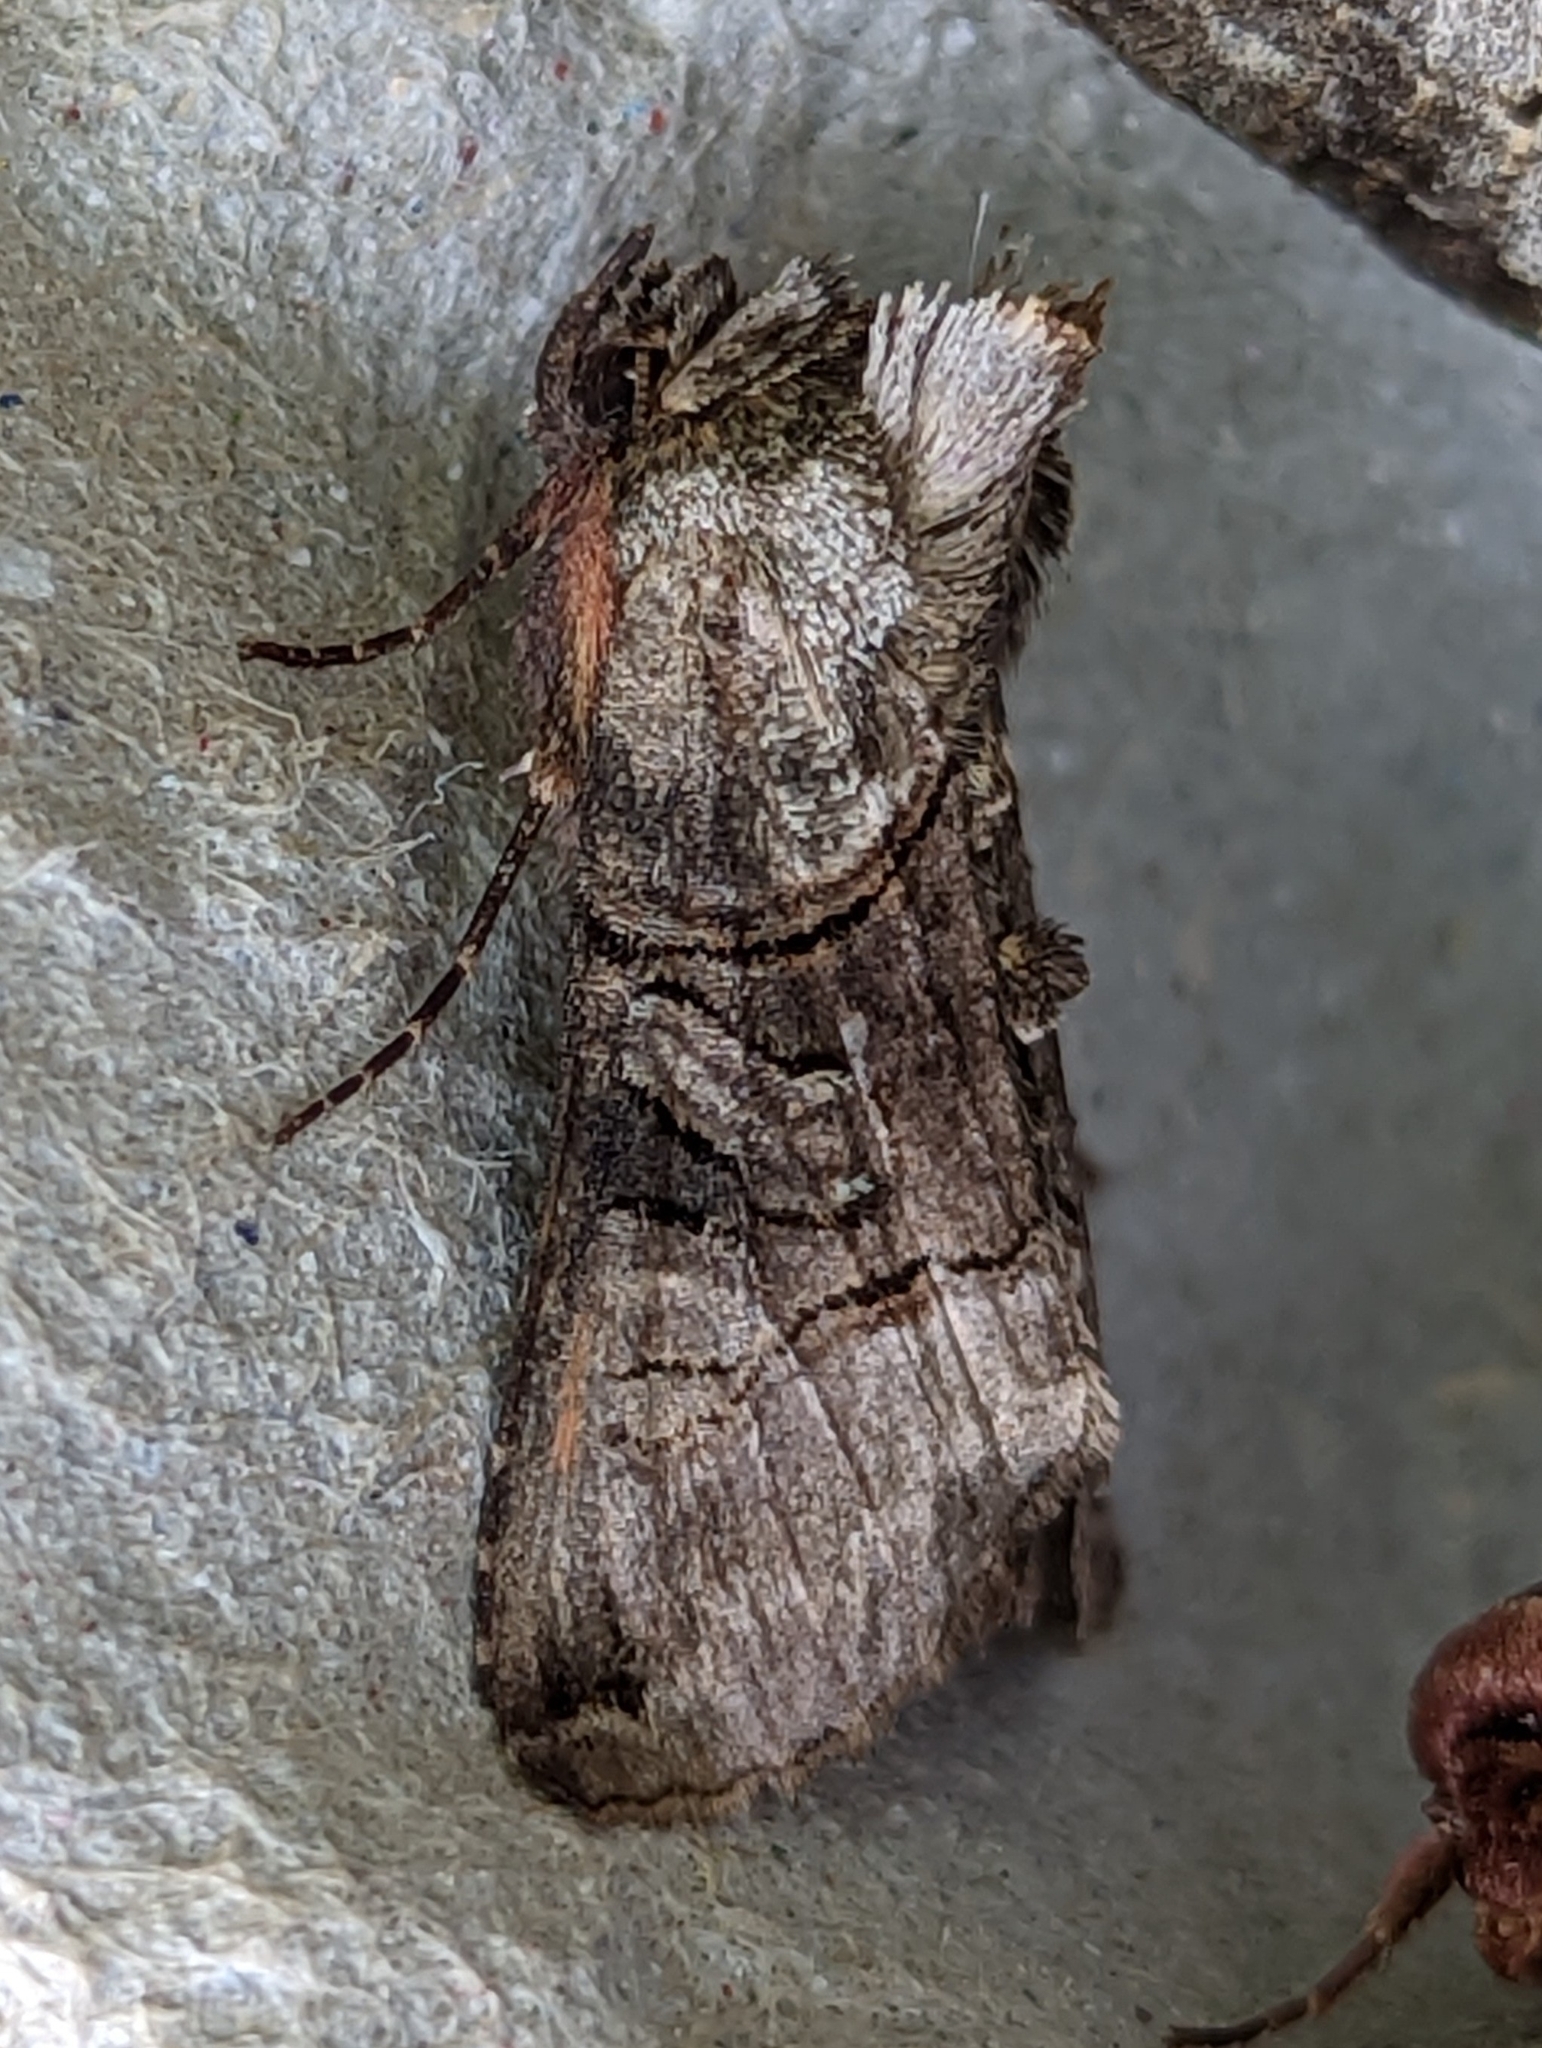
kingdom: Animalia
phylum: Arthropoda
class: Insecta
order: Lepidoptera
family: Noctuidae
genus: Abrostola
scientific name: Abrostola tripartita
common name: Spectacle
